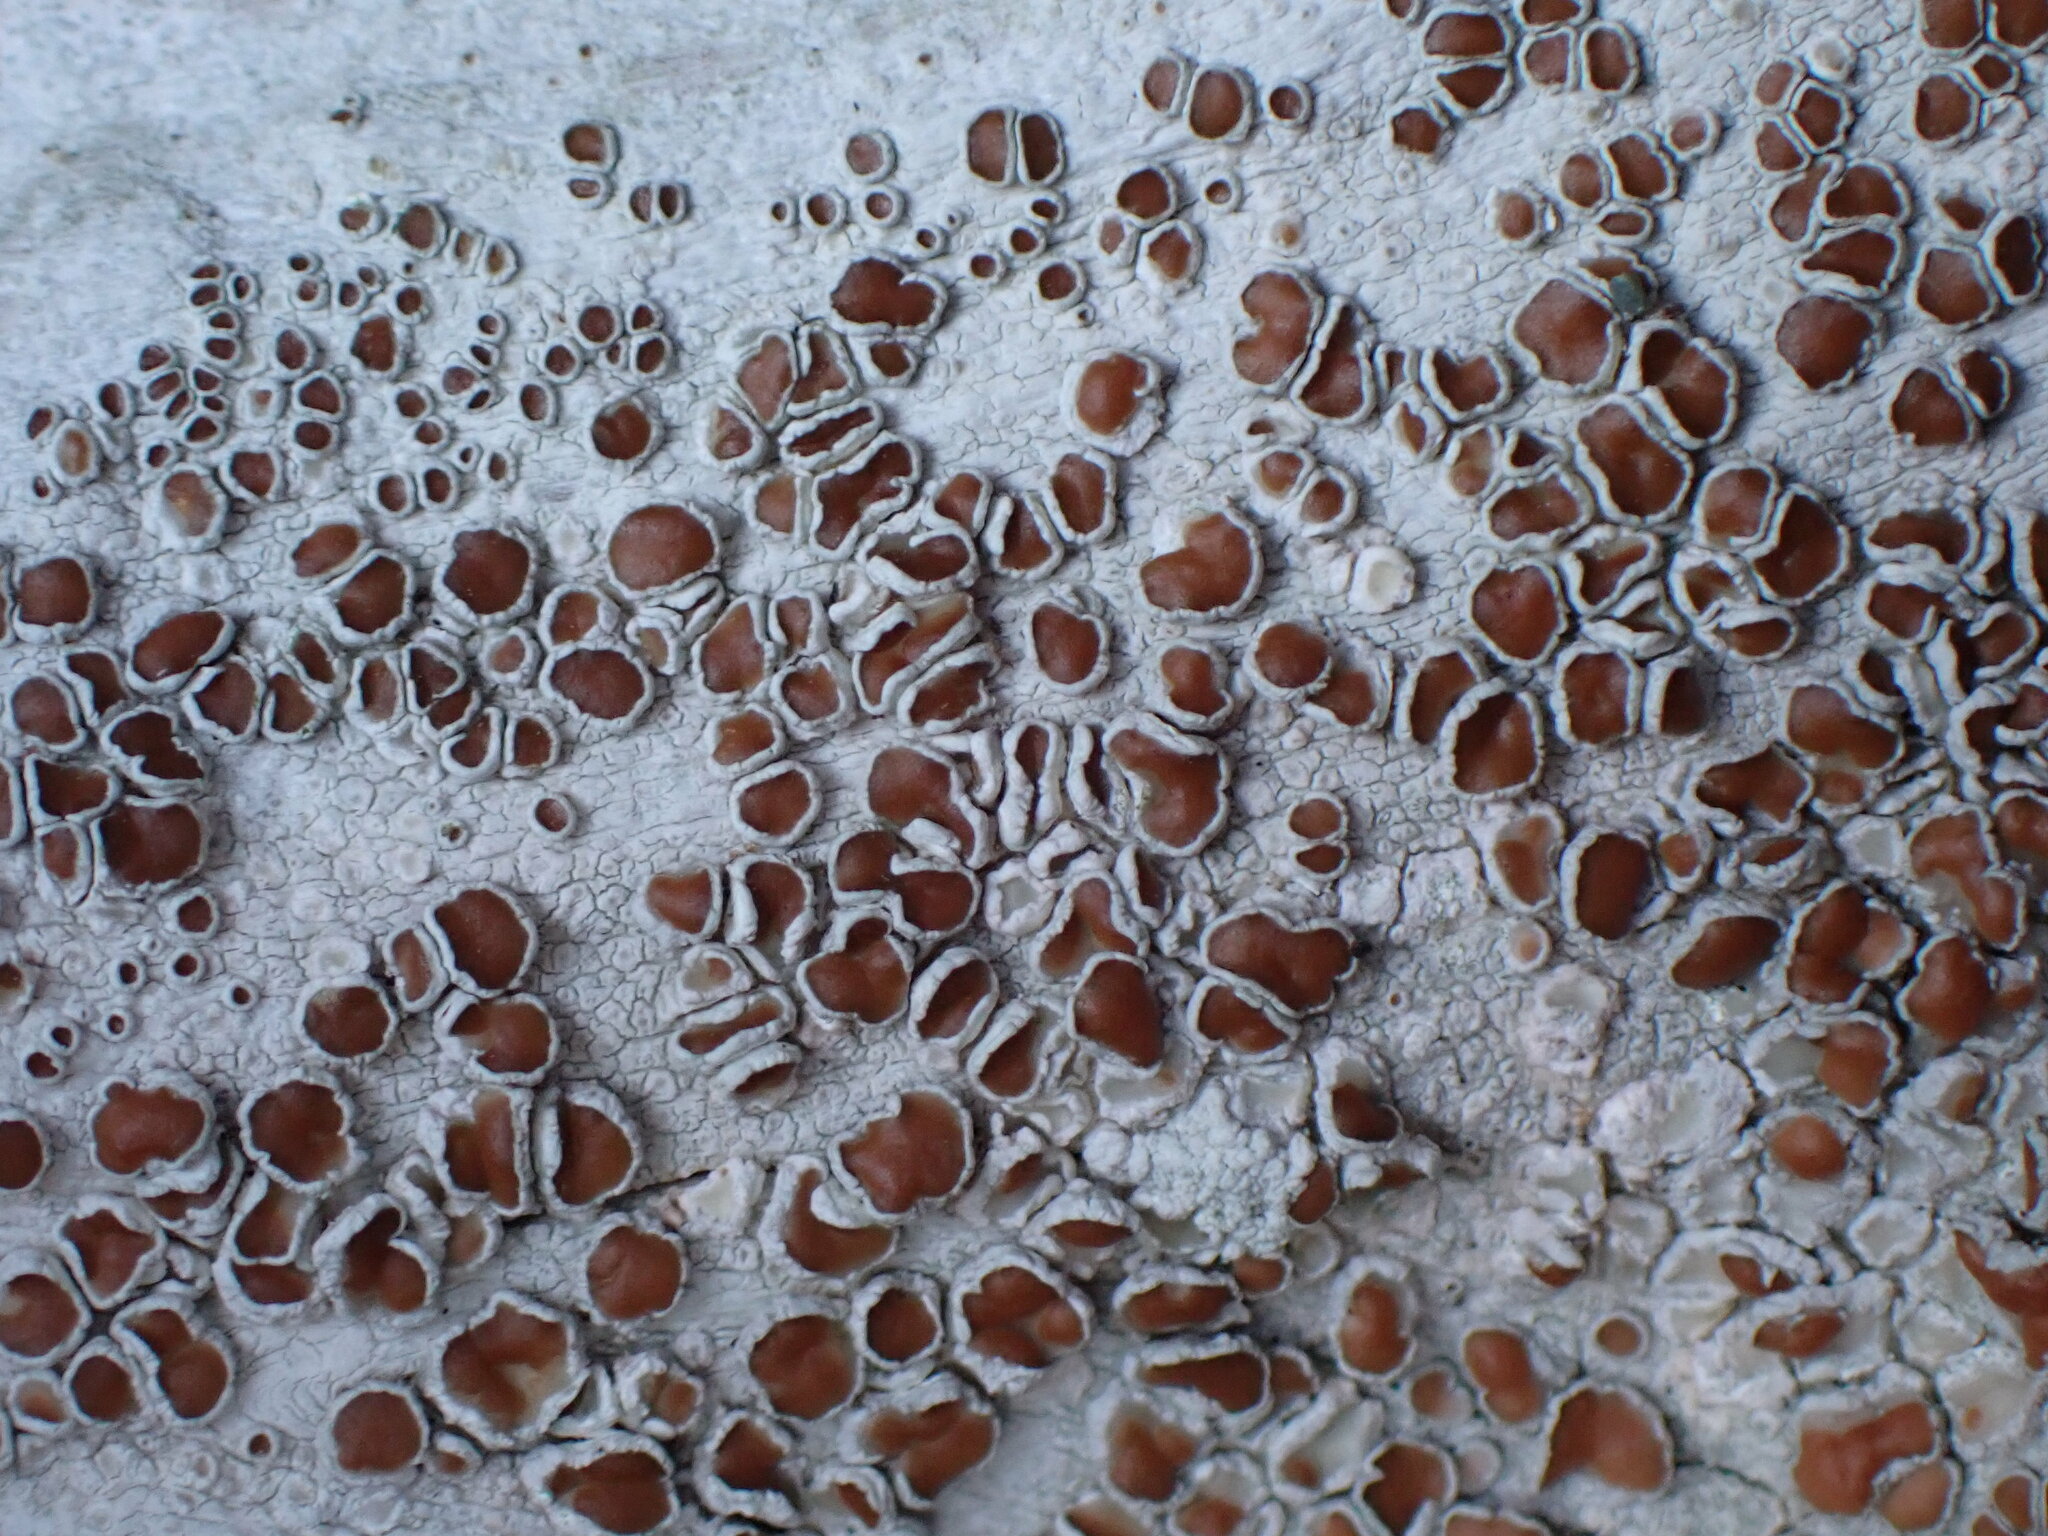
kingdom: Fungi
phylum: Ascomycota
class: Lecanoromycetes
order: Lecanorales
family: Lecanoraceae
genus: Lecanora
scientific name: Lecanora xylophila
